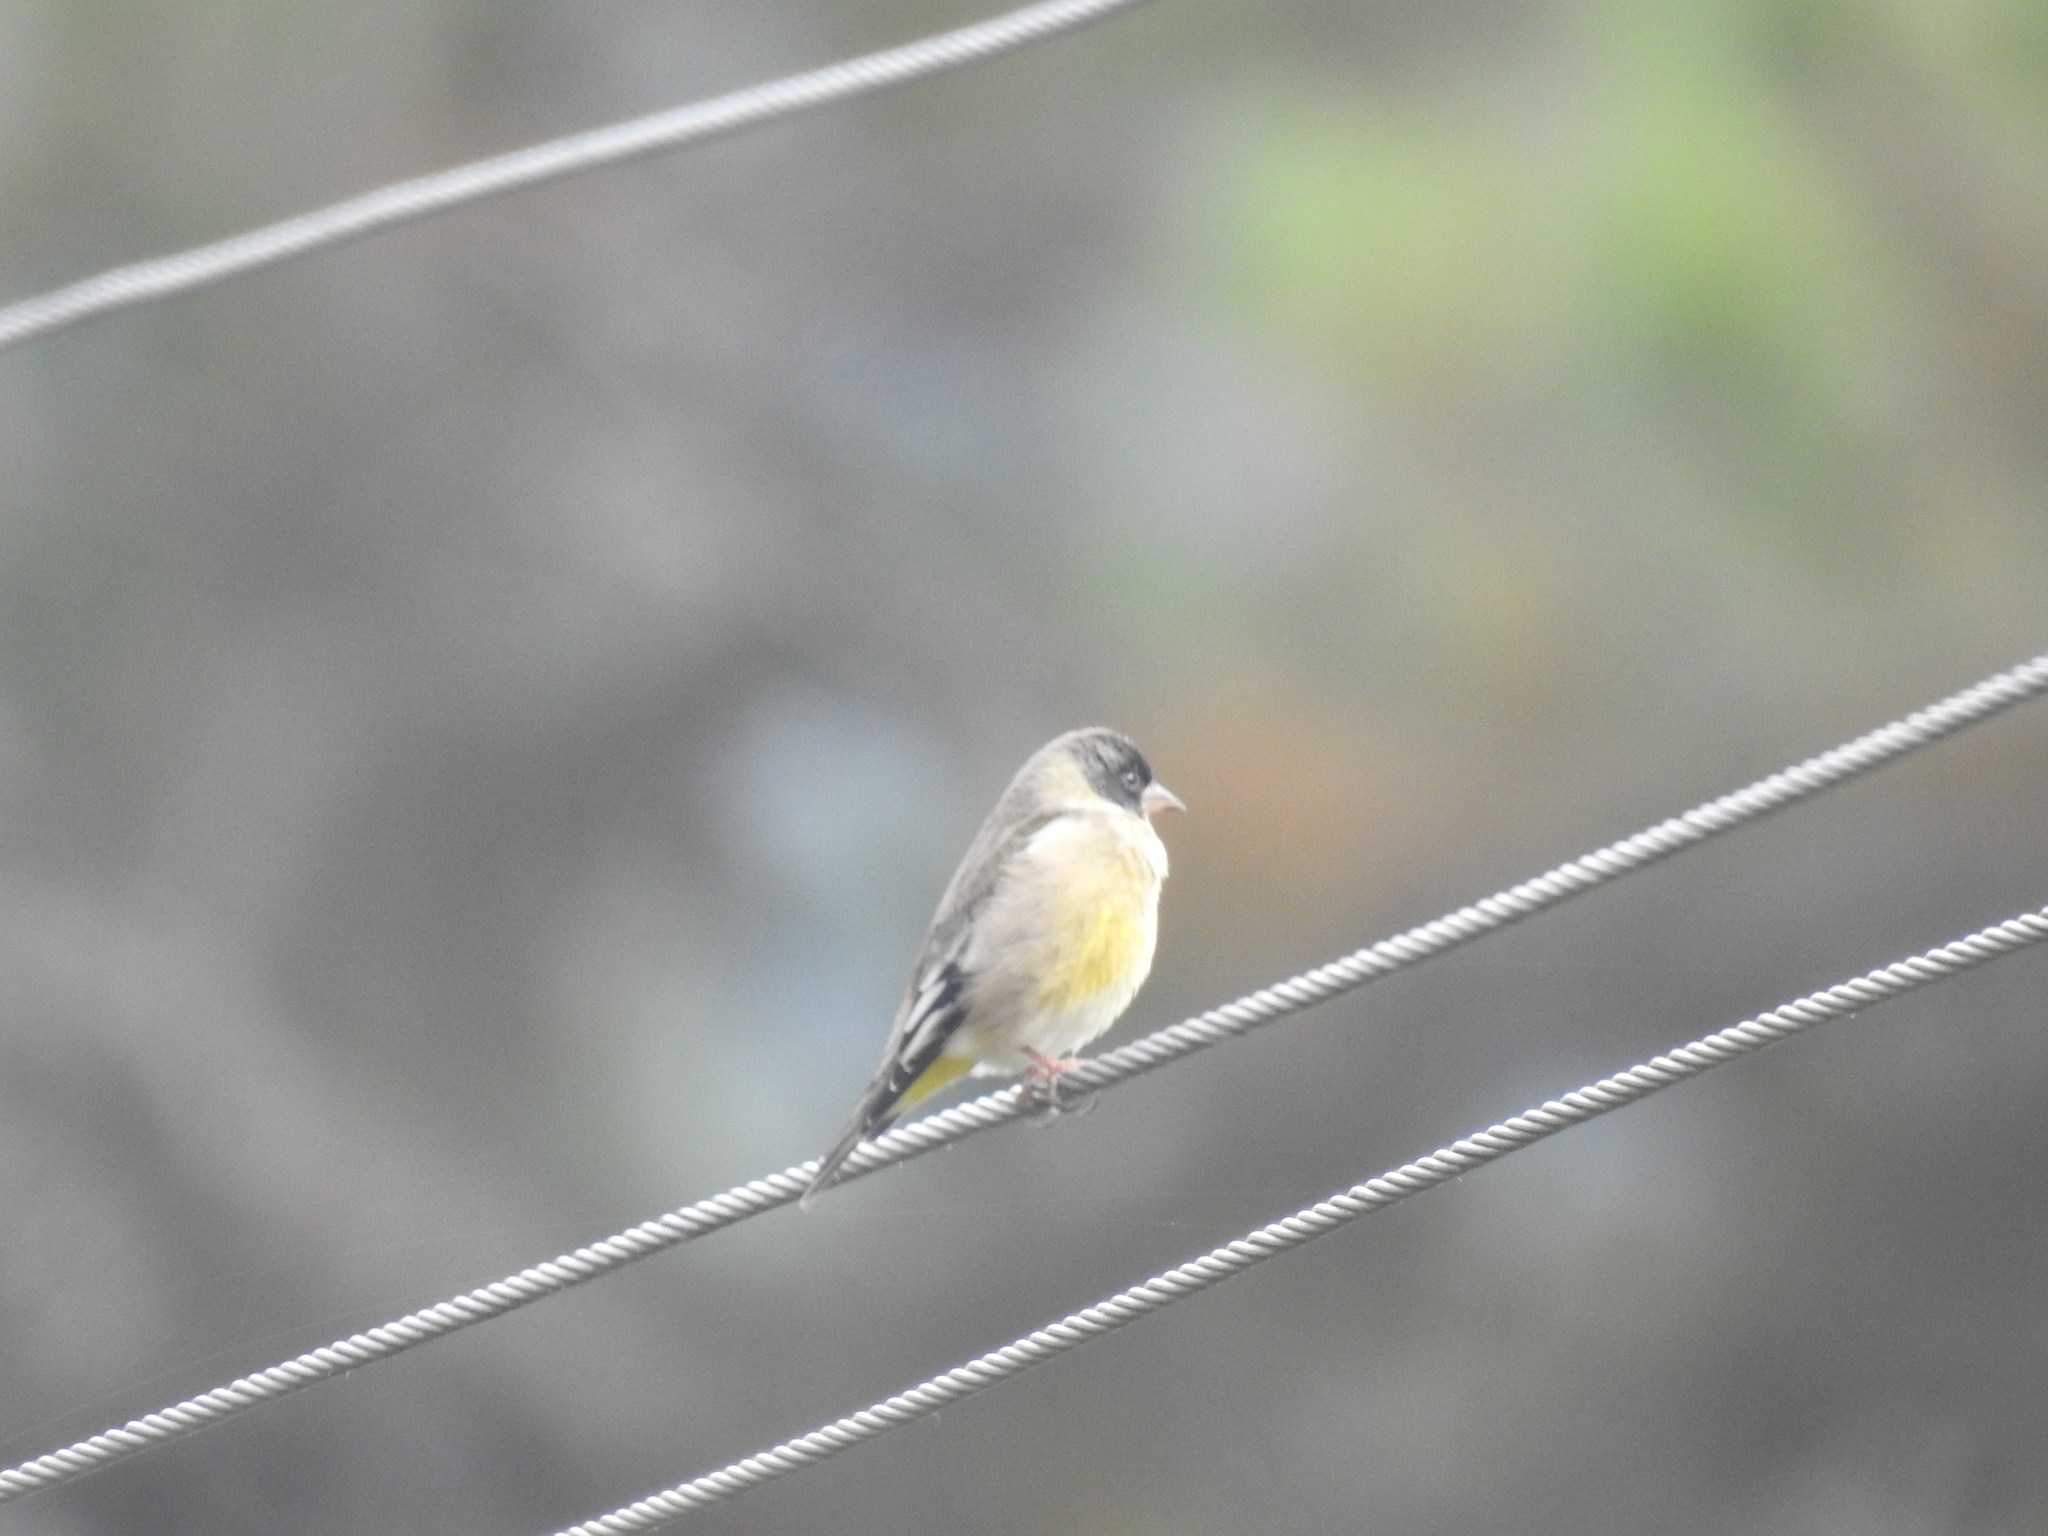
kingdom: Animalia
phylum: Chordata
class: Aves
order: Passeriformes
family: Fringillidae
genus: Chloris
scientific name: Chloris ambigua
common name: Black-headed greenfinch
